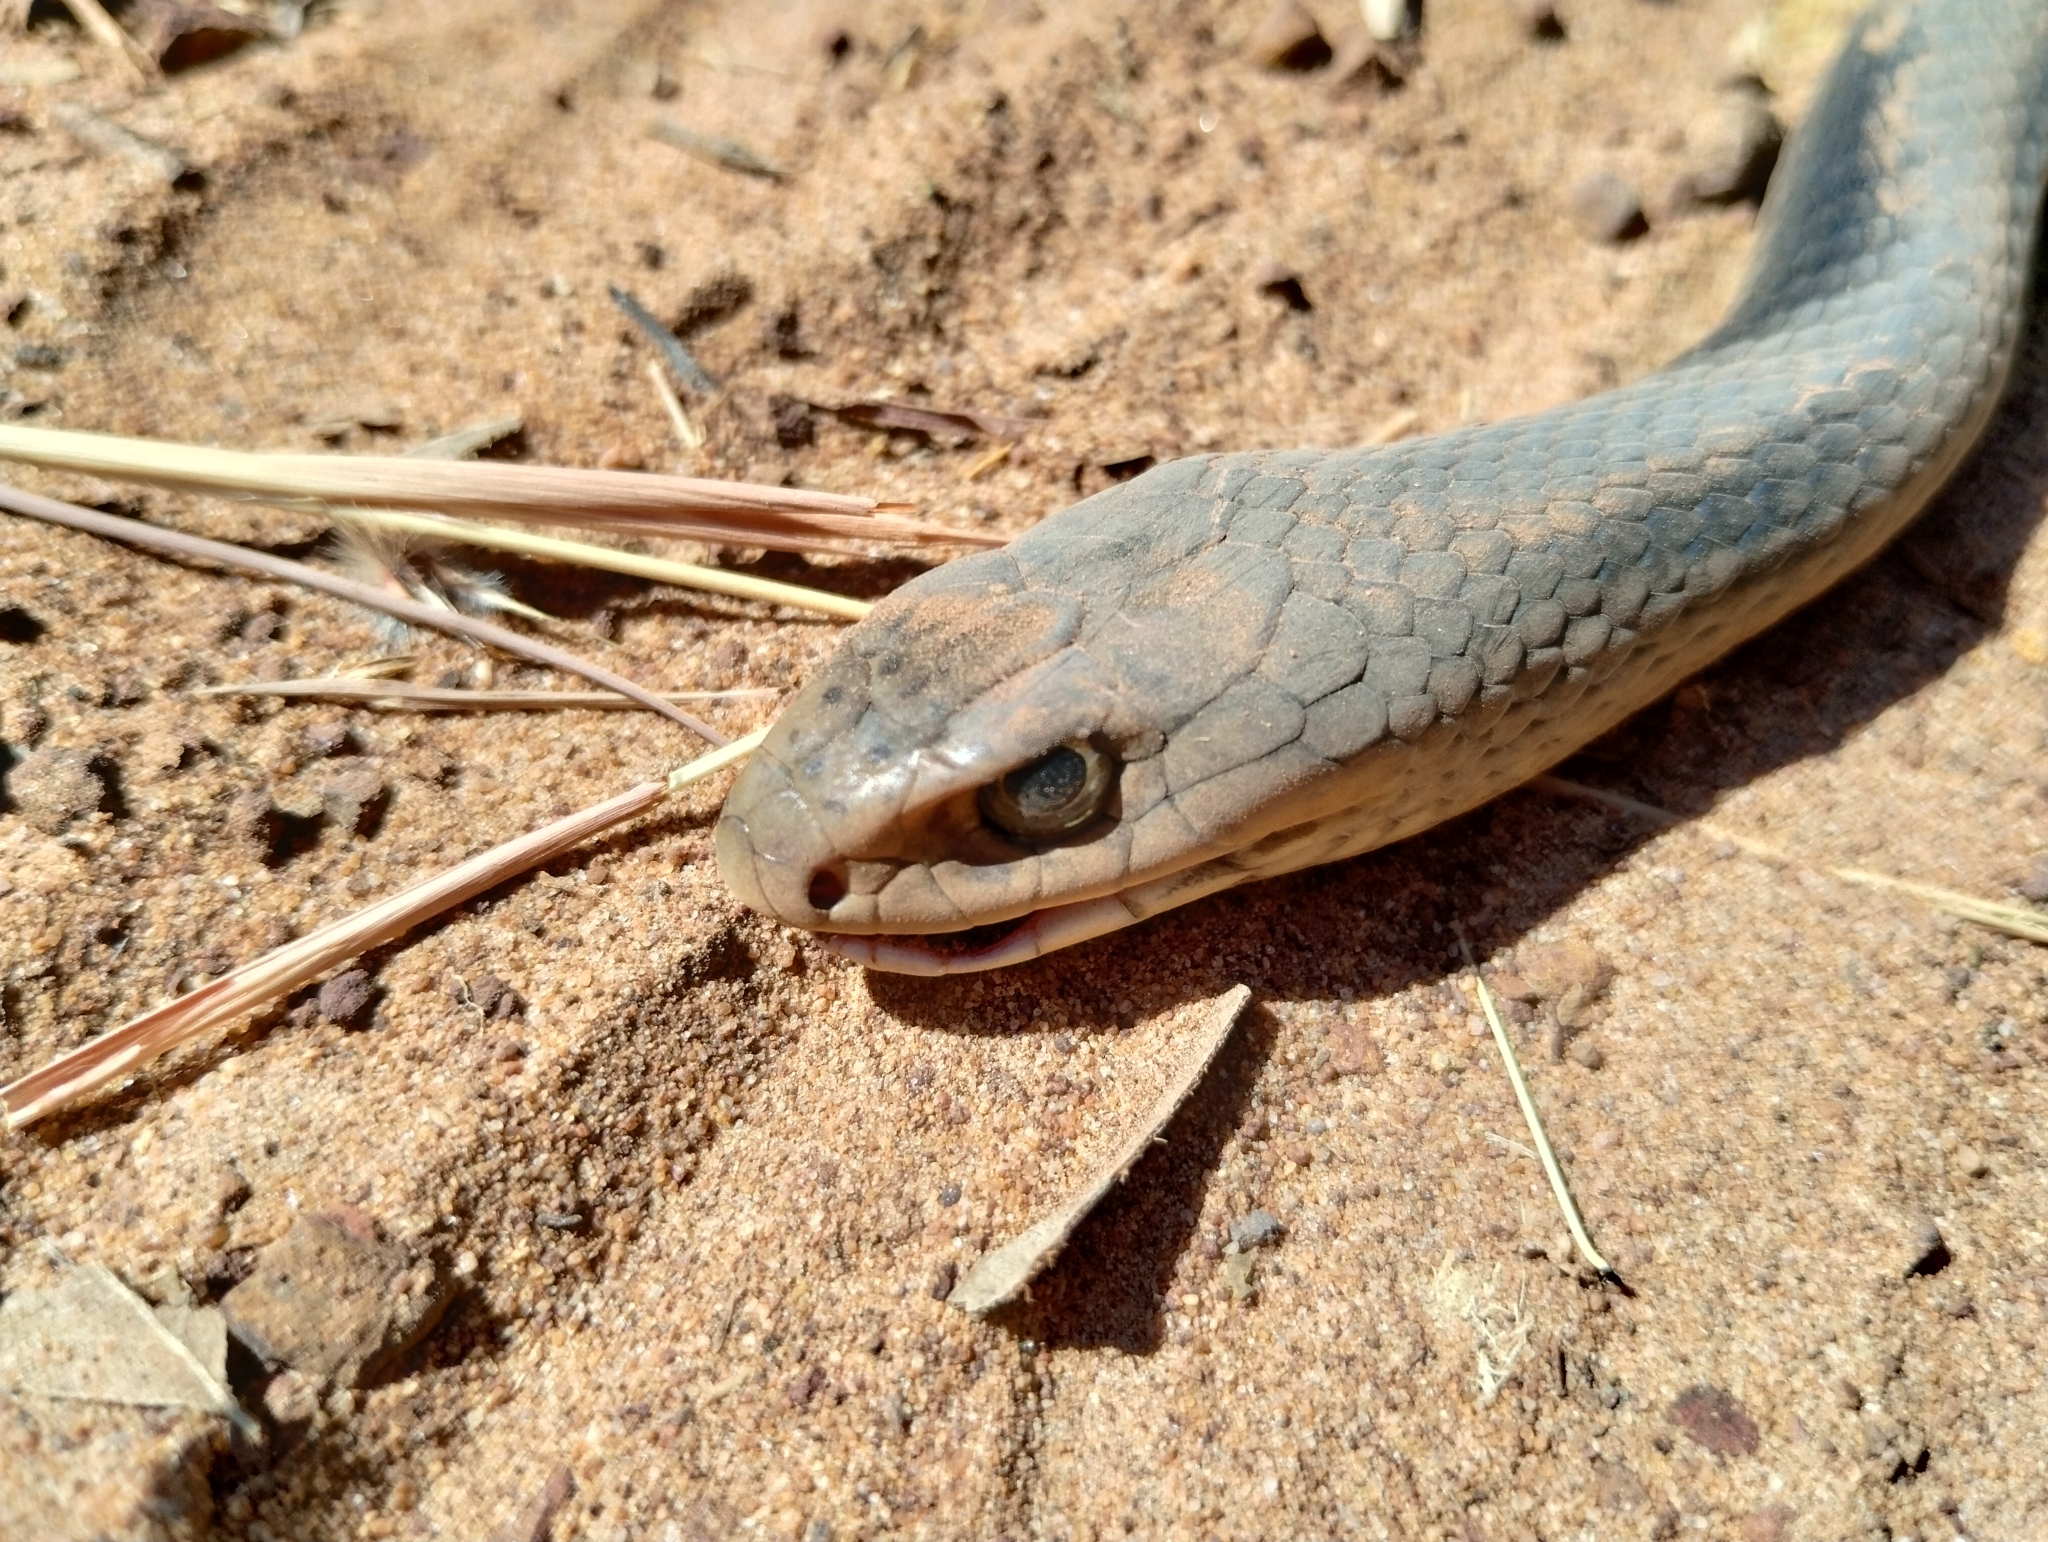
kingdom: Animalia
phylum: Chordata
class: Squamata
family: Elapidae
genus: Demansia
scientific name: Demansia papuensis
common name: Papuan whip snake
